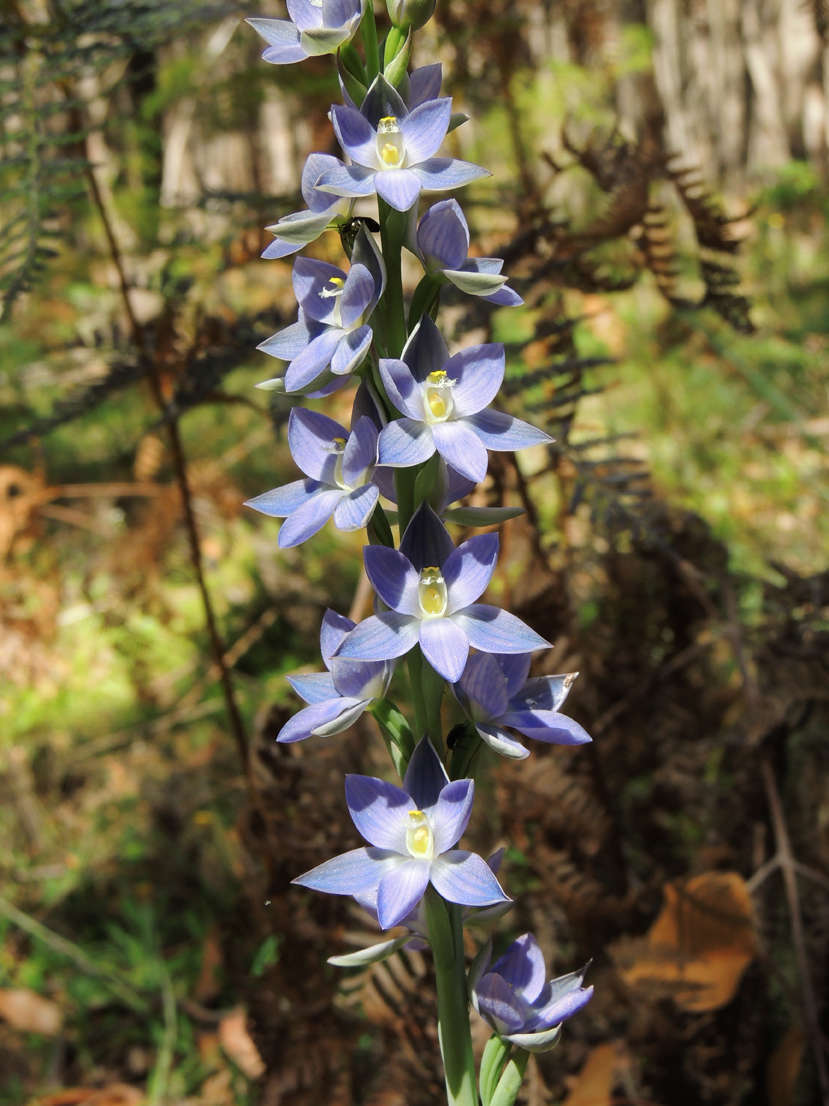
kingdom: Plantae
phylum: Tracheophyta
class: Liliopsida
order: Asparagales
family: Orchidaceae
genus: Thelymitra
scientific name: Thelymitra aristata
